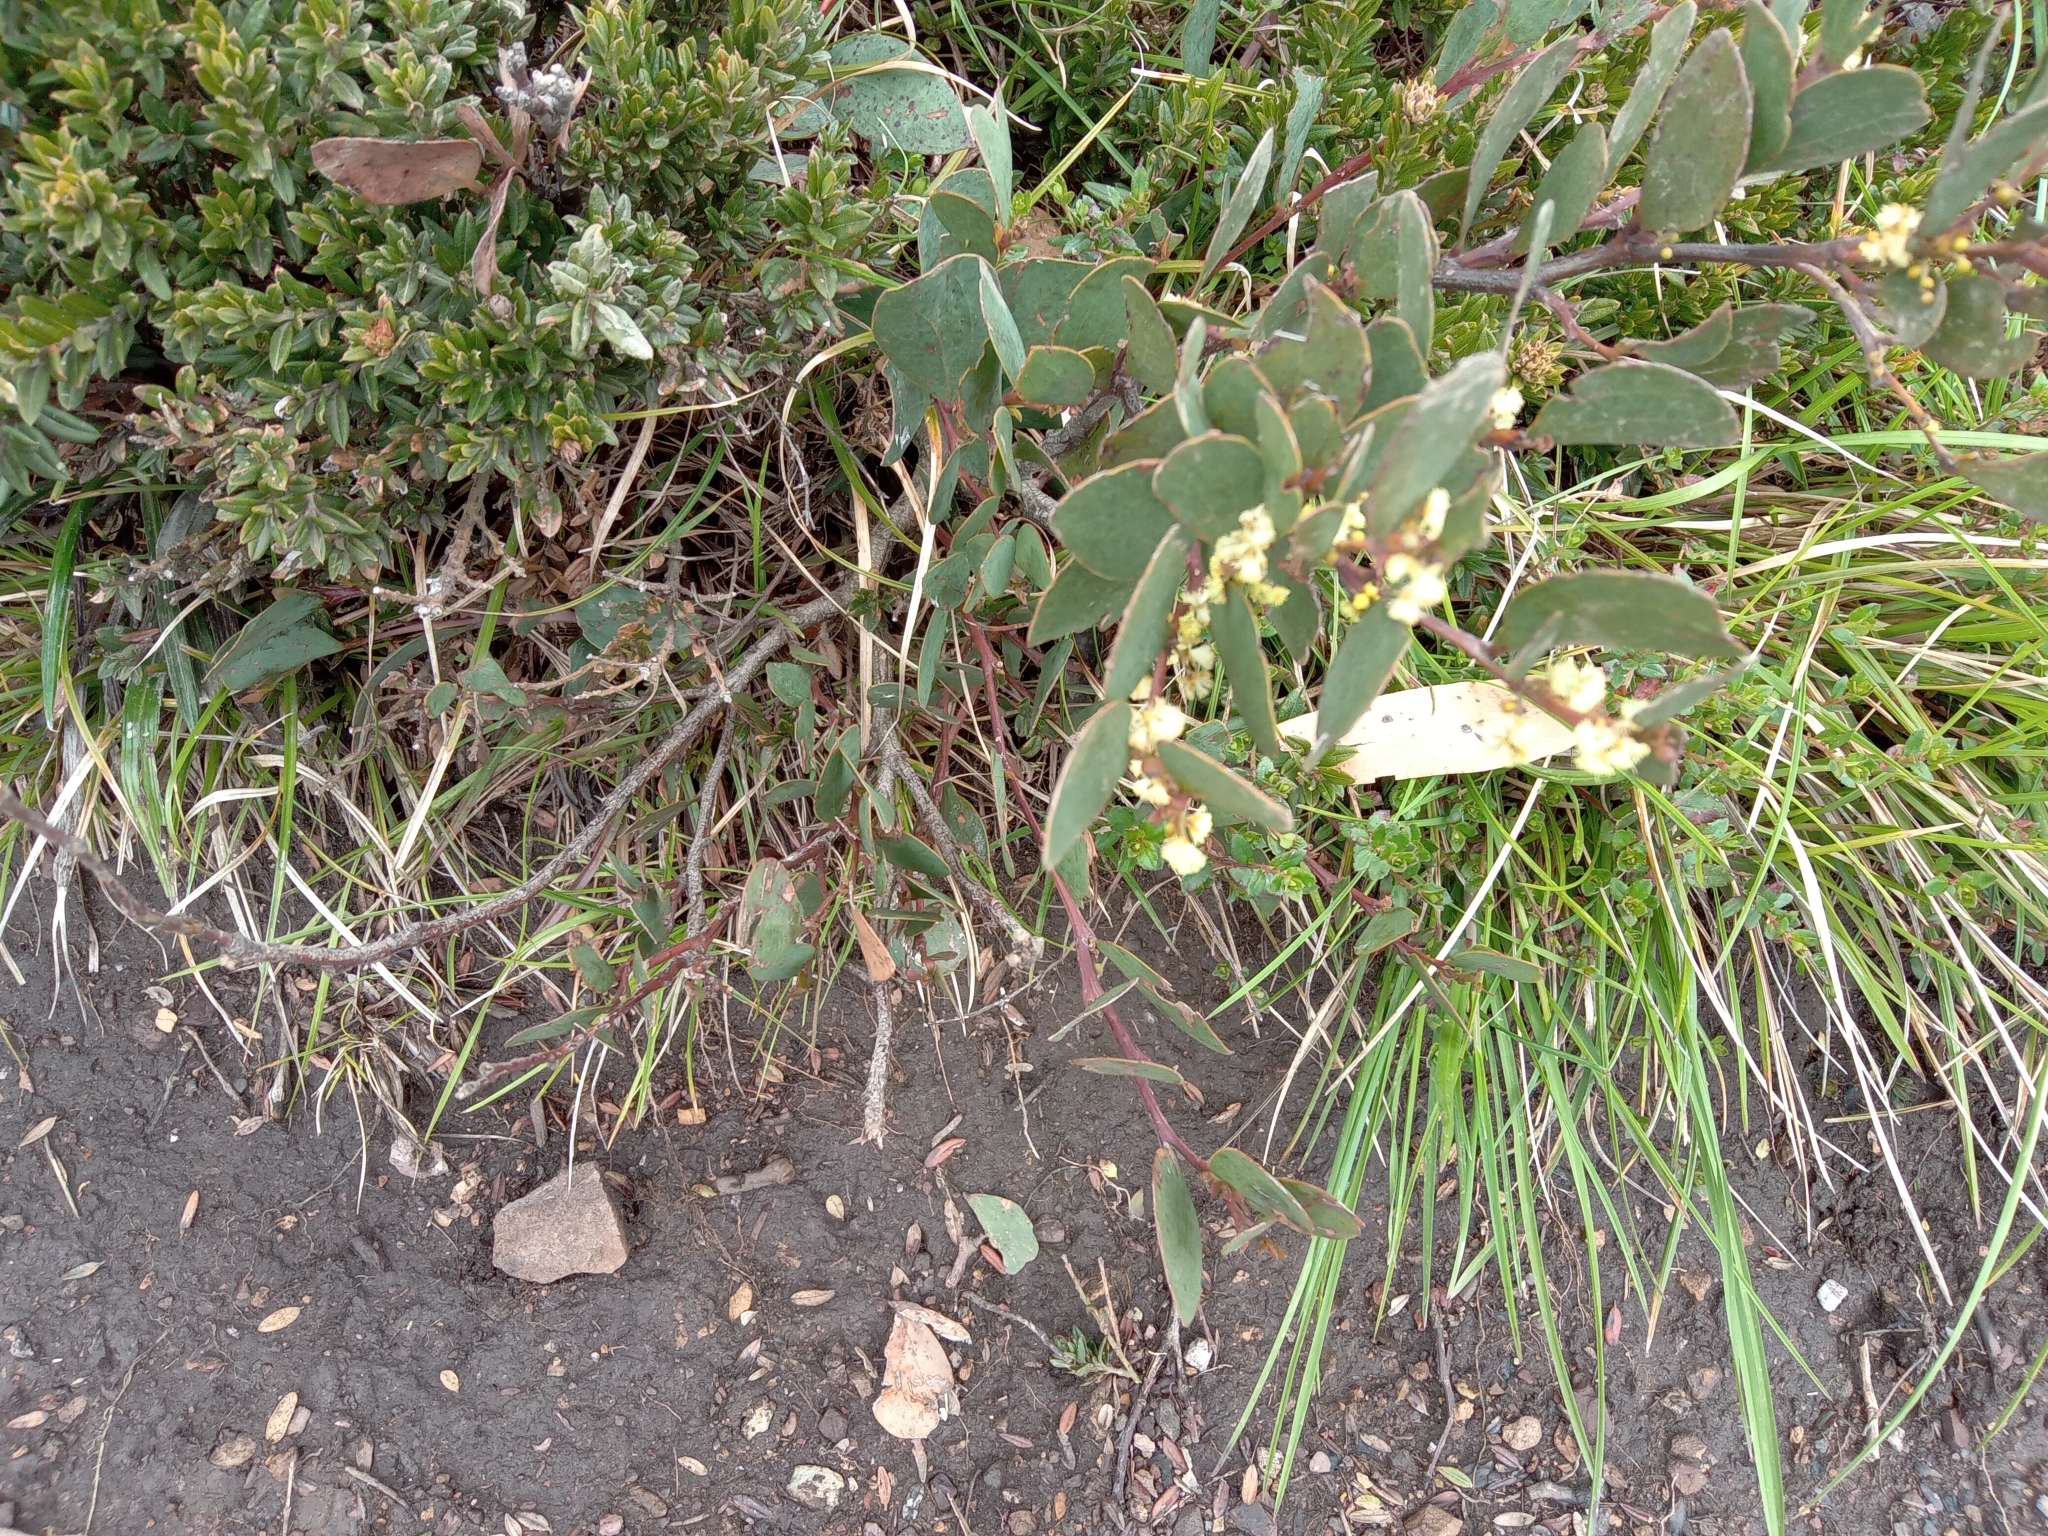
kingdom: Plantae
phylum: Tracheophyta
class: Magnoliopsida
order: Fabales
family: Fabaceae
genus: Acacia
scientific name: Acacia alpina
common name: Alpine wattle
